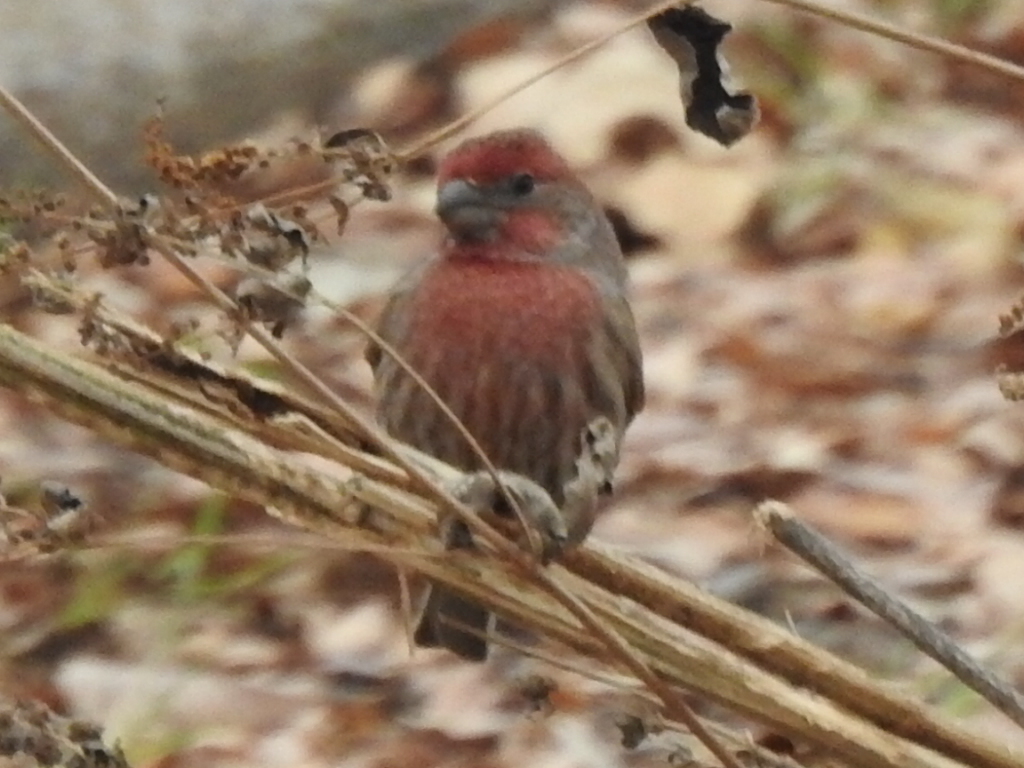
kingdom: Animalia
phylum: Chordata
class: Aves
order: Passeriformes
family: Fringillidae
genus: Haemorhous
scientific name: Haemorhous mexicanus
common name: House finch
